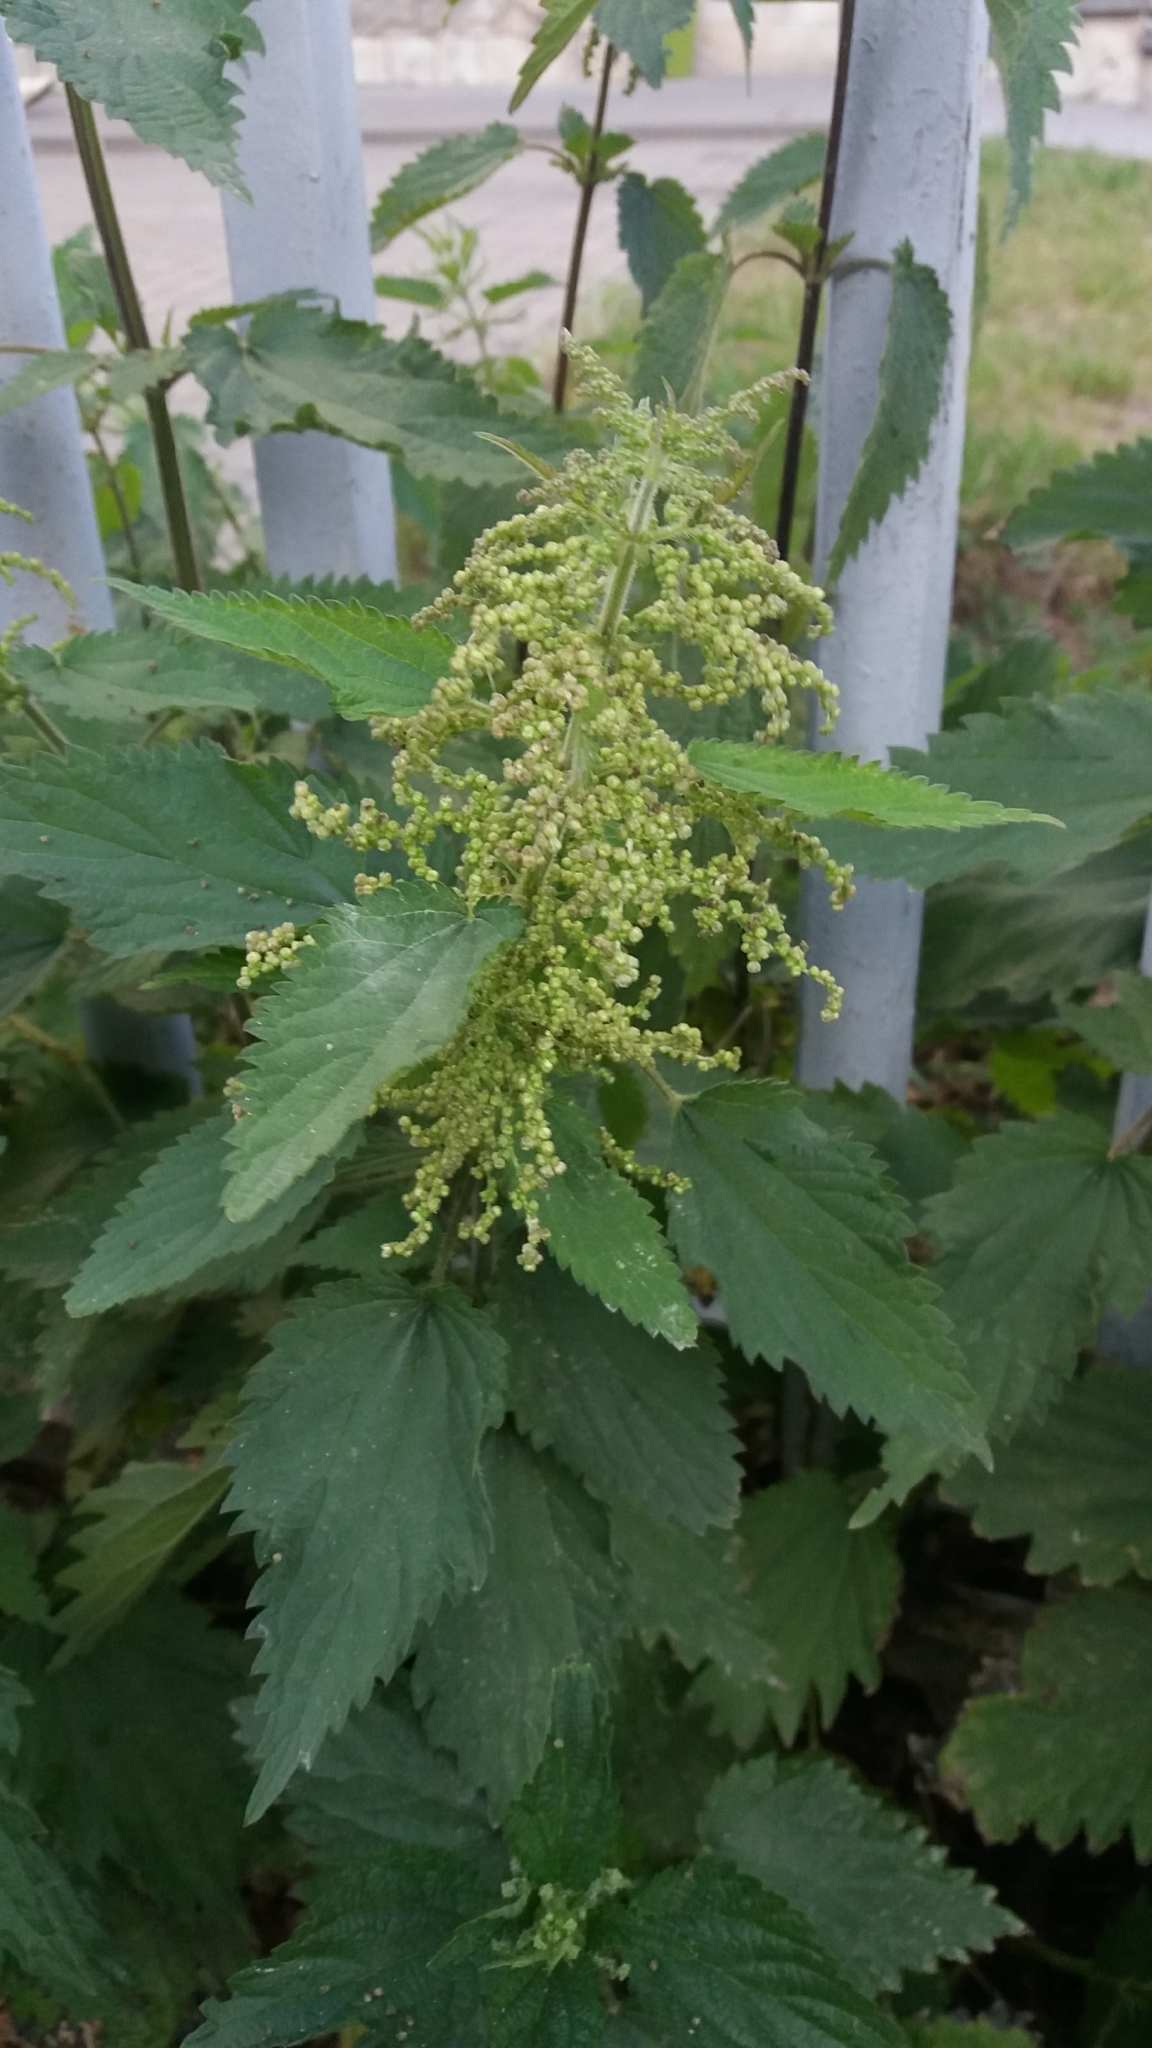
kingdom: Plantae
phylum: Tracheophyta
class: Magnoliopsida
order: Rosales
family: Urticaceae
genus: Urtica
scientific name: Urtica dioica
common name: Common nettle
